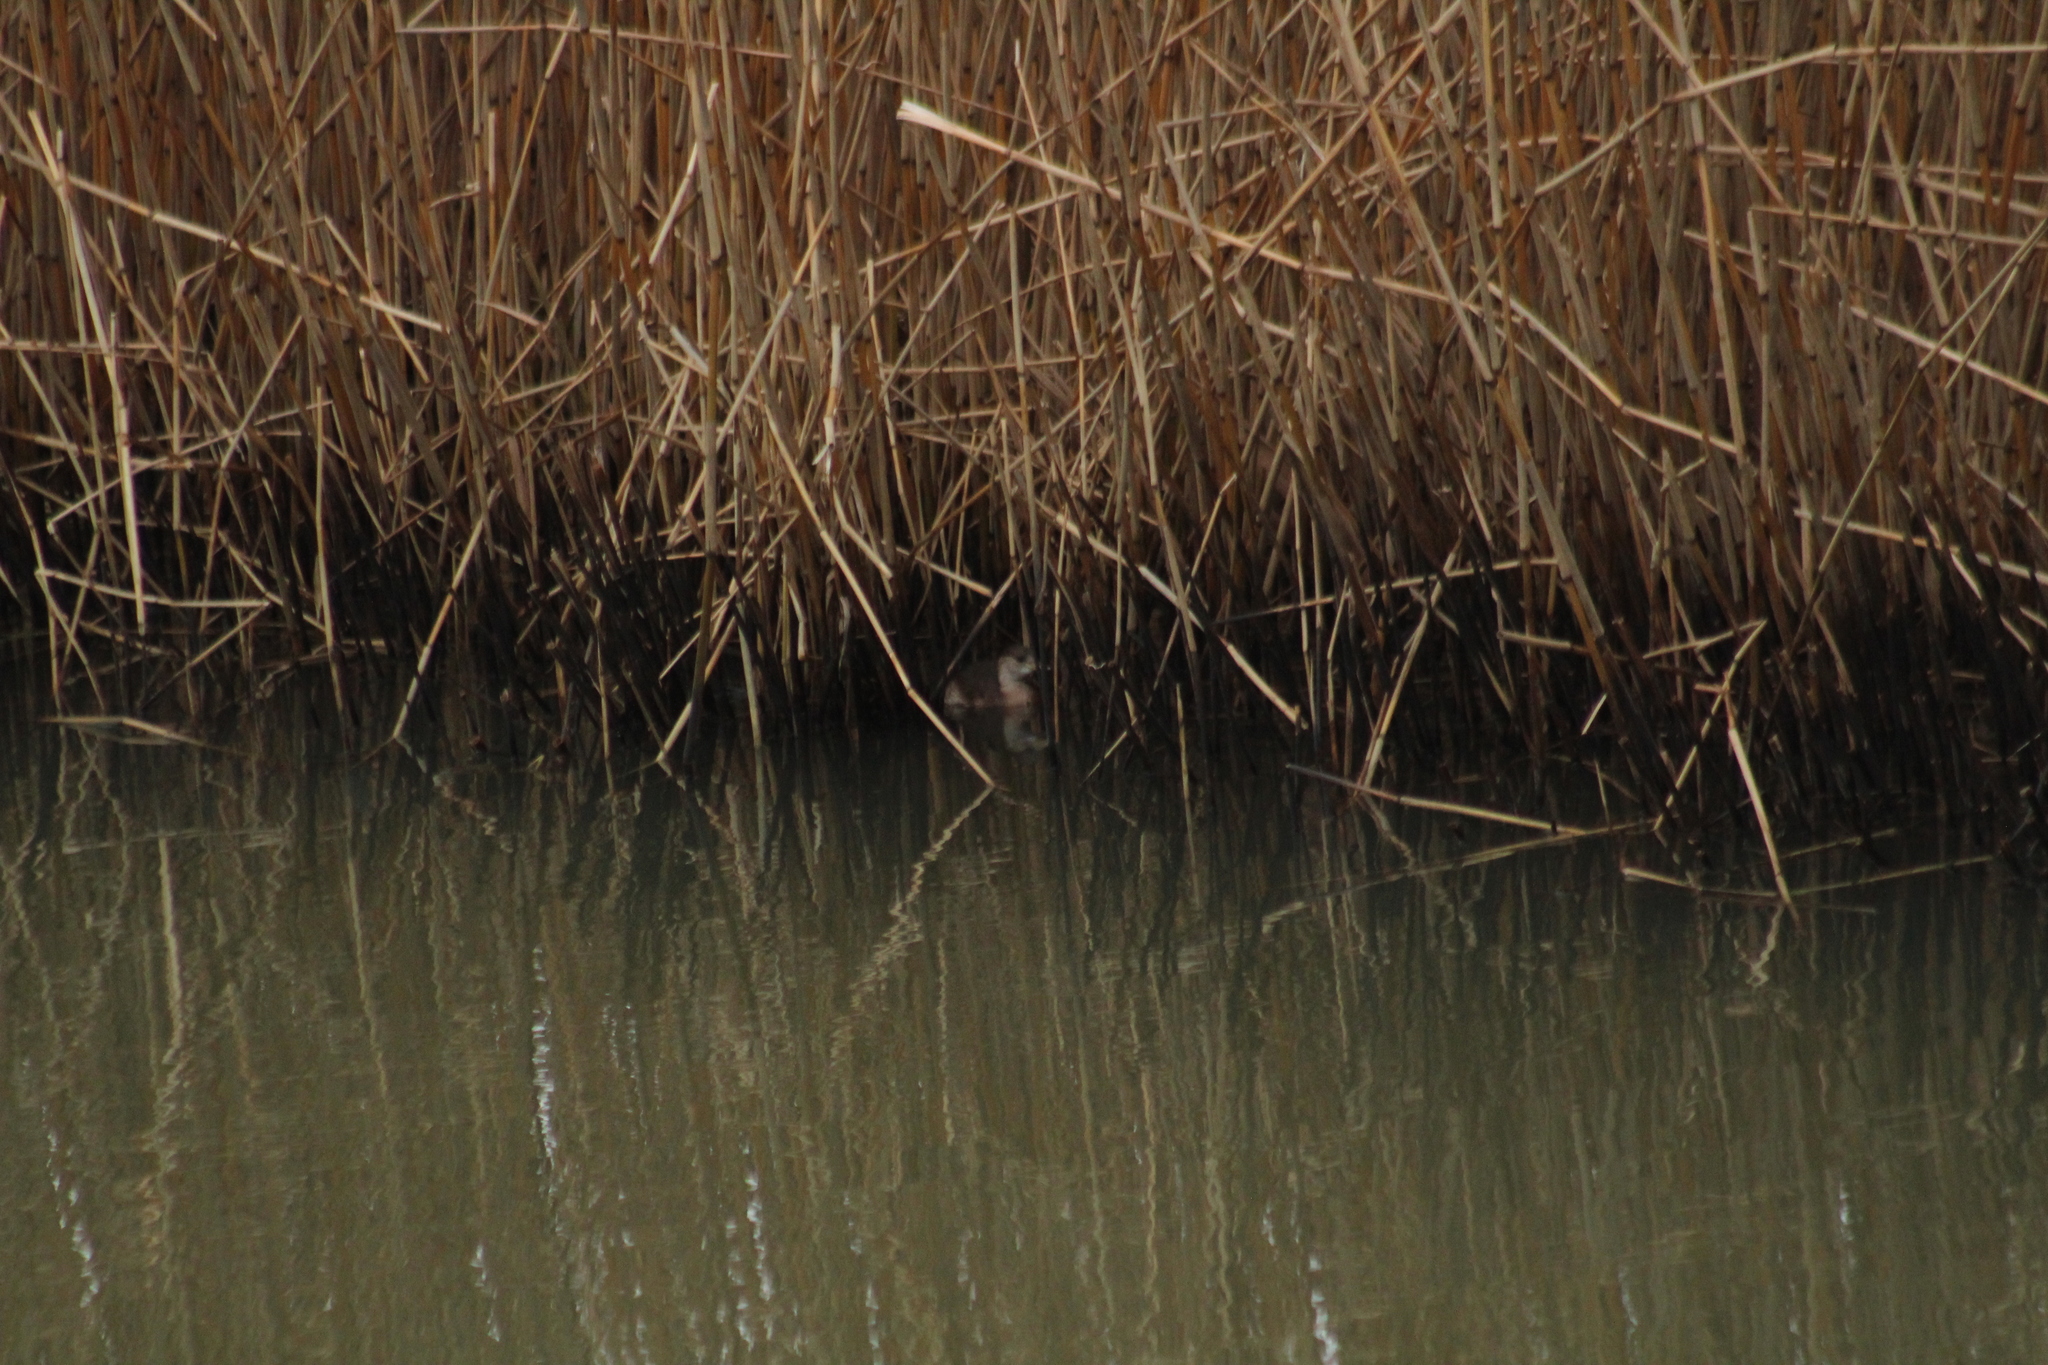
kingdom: Animalia
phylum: Chordata
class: Aves
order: Podicipediformes
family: Podicipedidae
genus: Tachybaptus
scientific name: Tachybaptus ruficollis
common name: Little grebe
